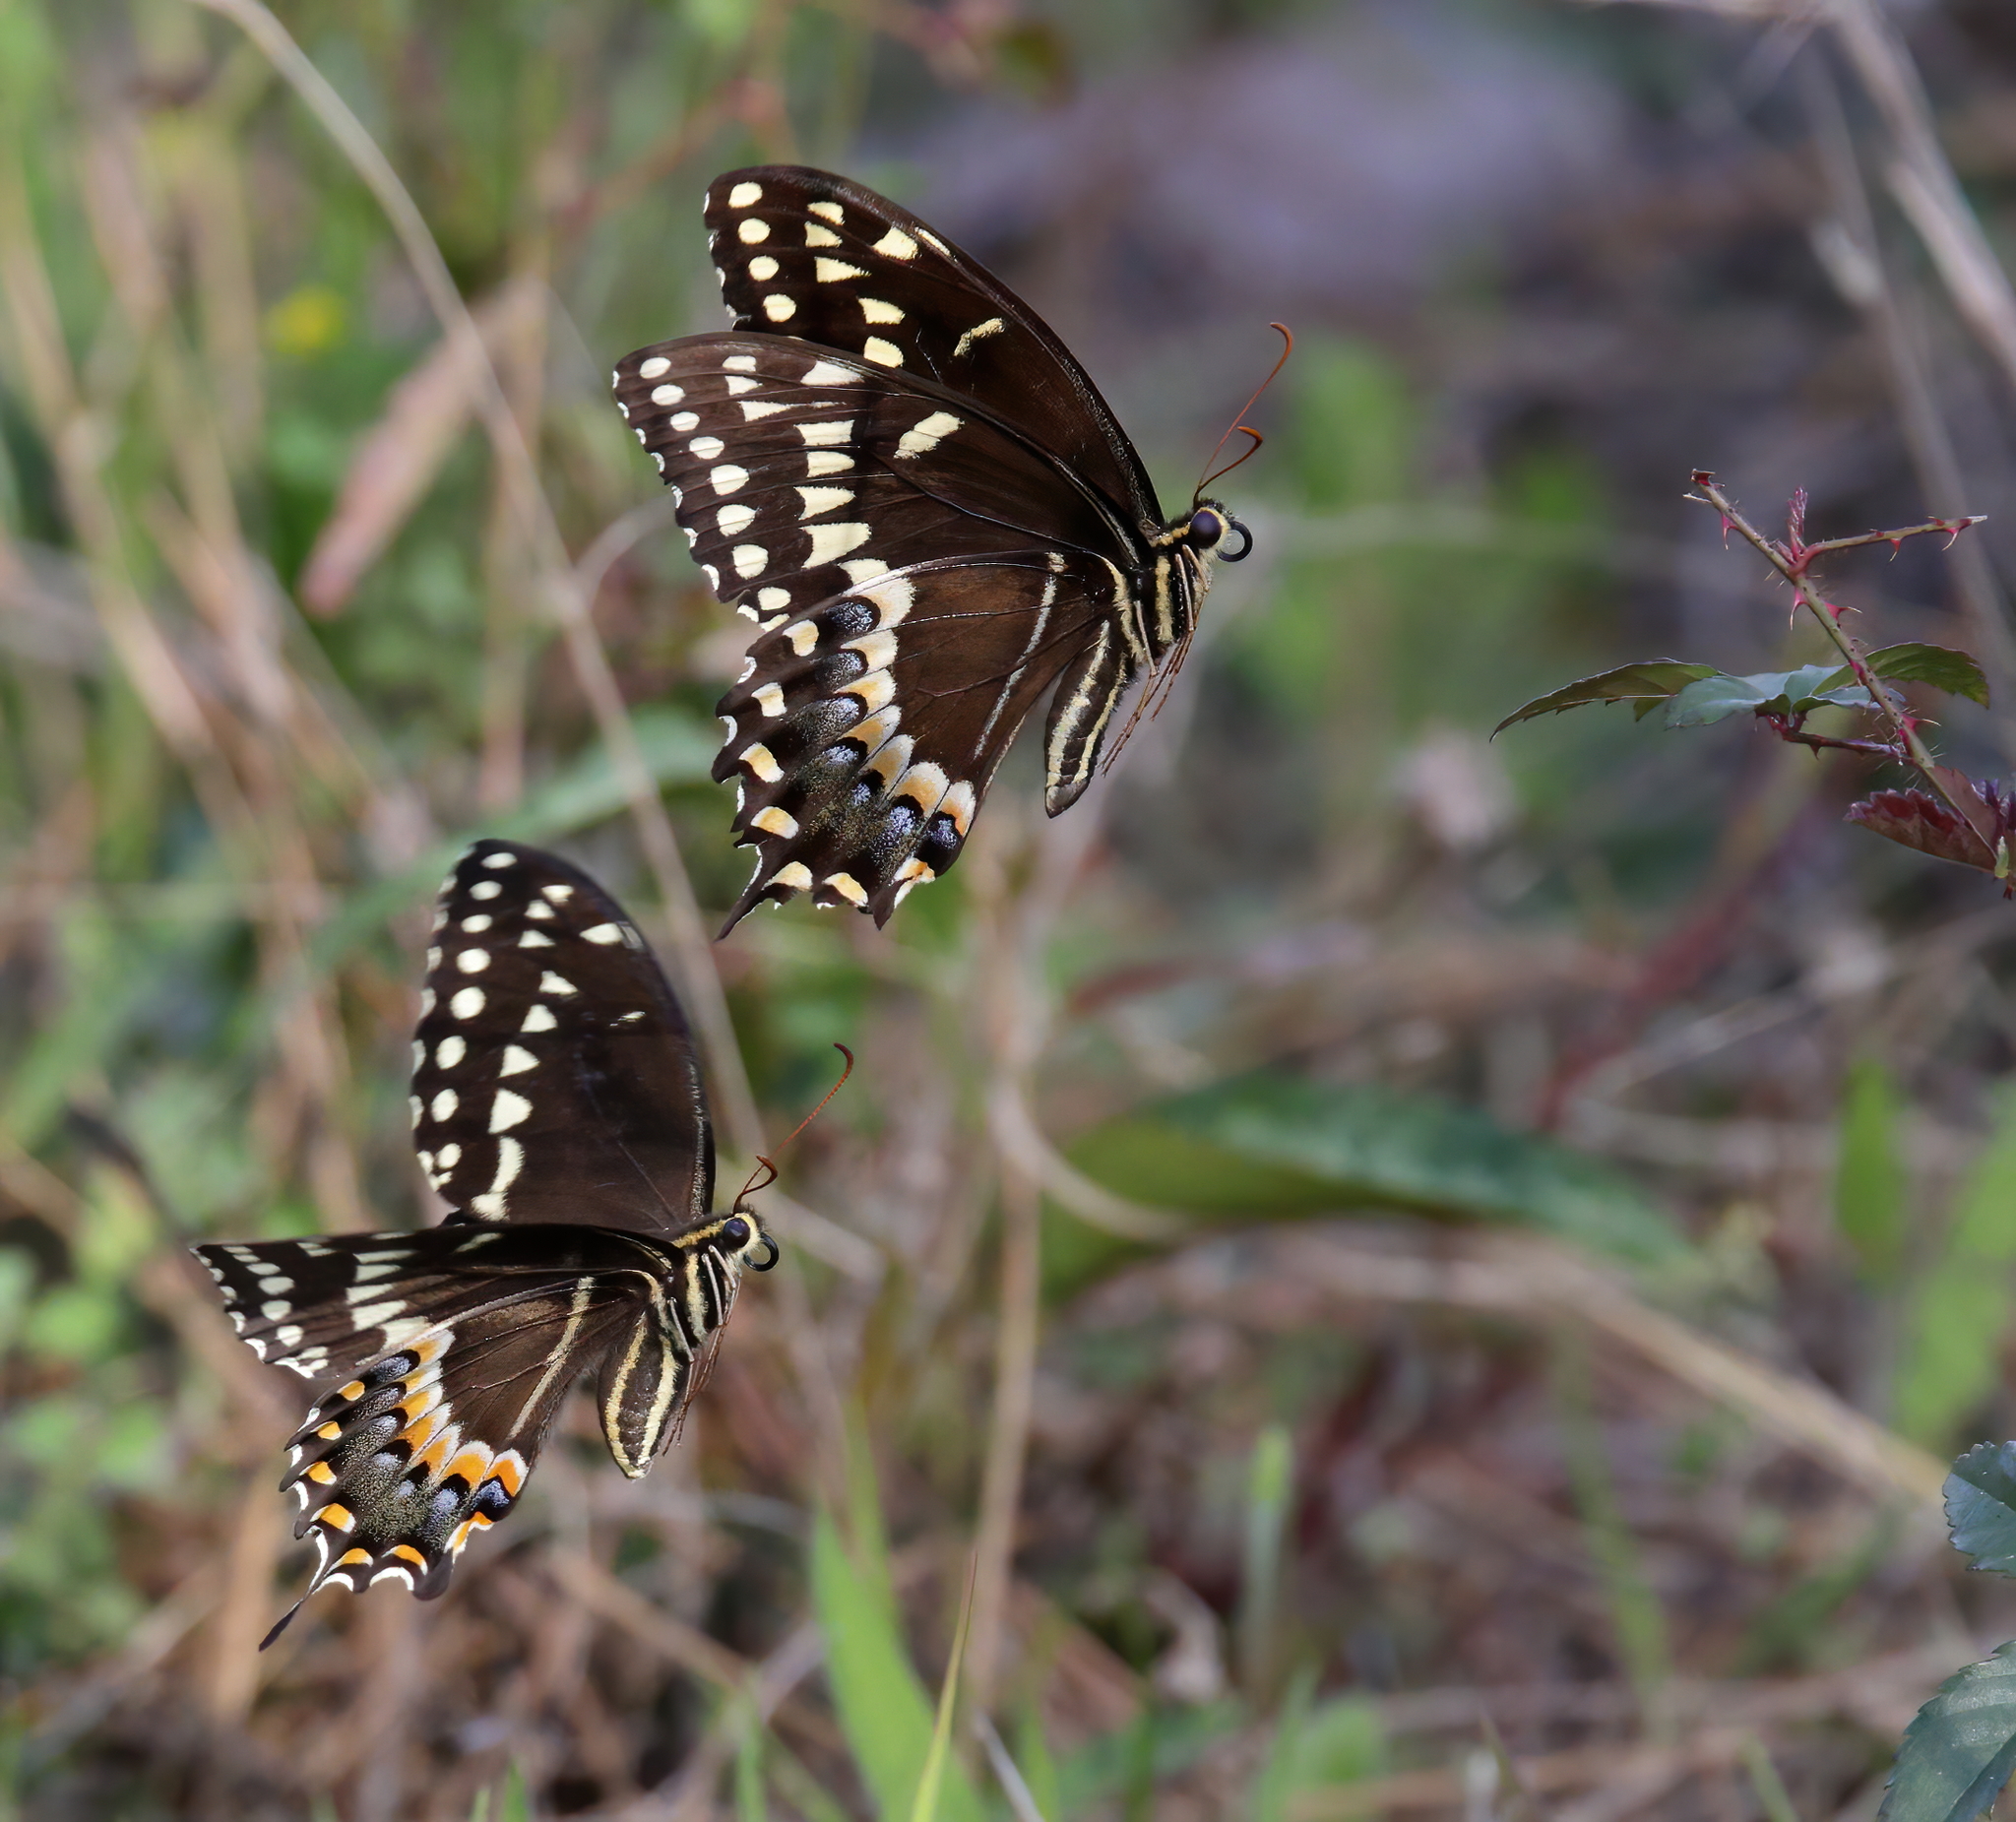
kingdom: Animalia
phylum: Arthropoda
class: Insecta
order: Lepidoptera
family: Papilionidae
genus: Papilio
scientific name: Papilio palamedes
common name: Palamedes swallowtail
